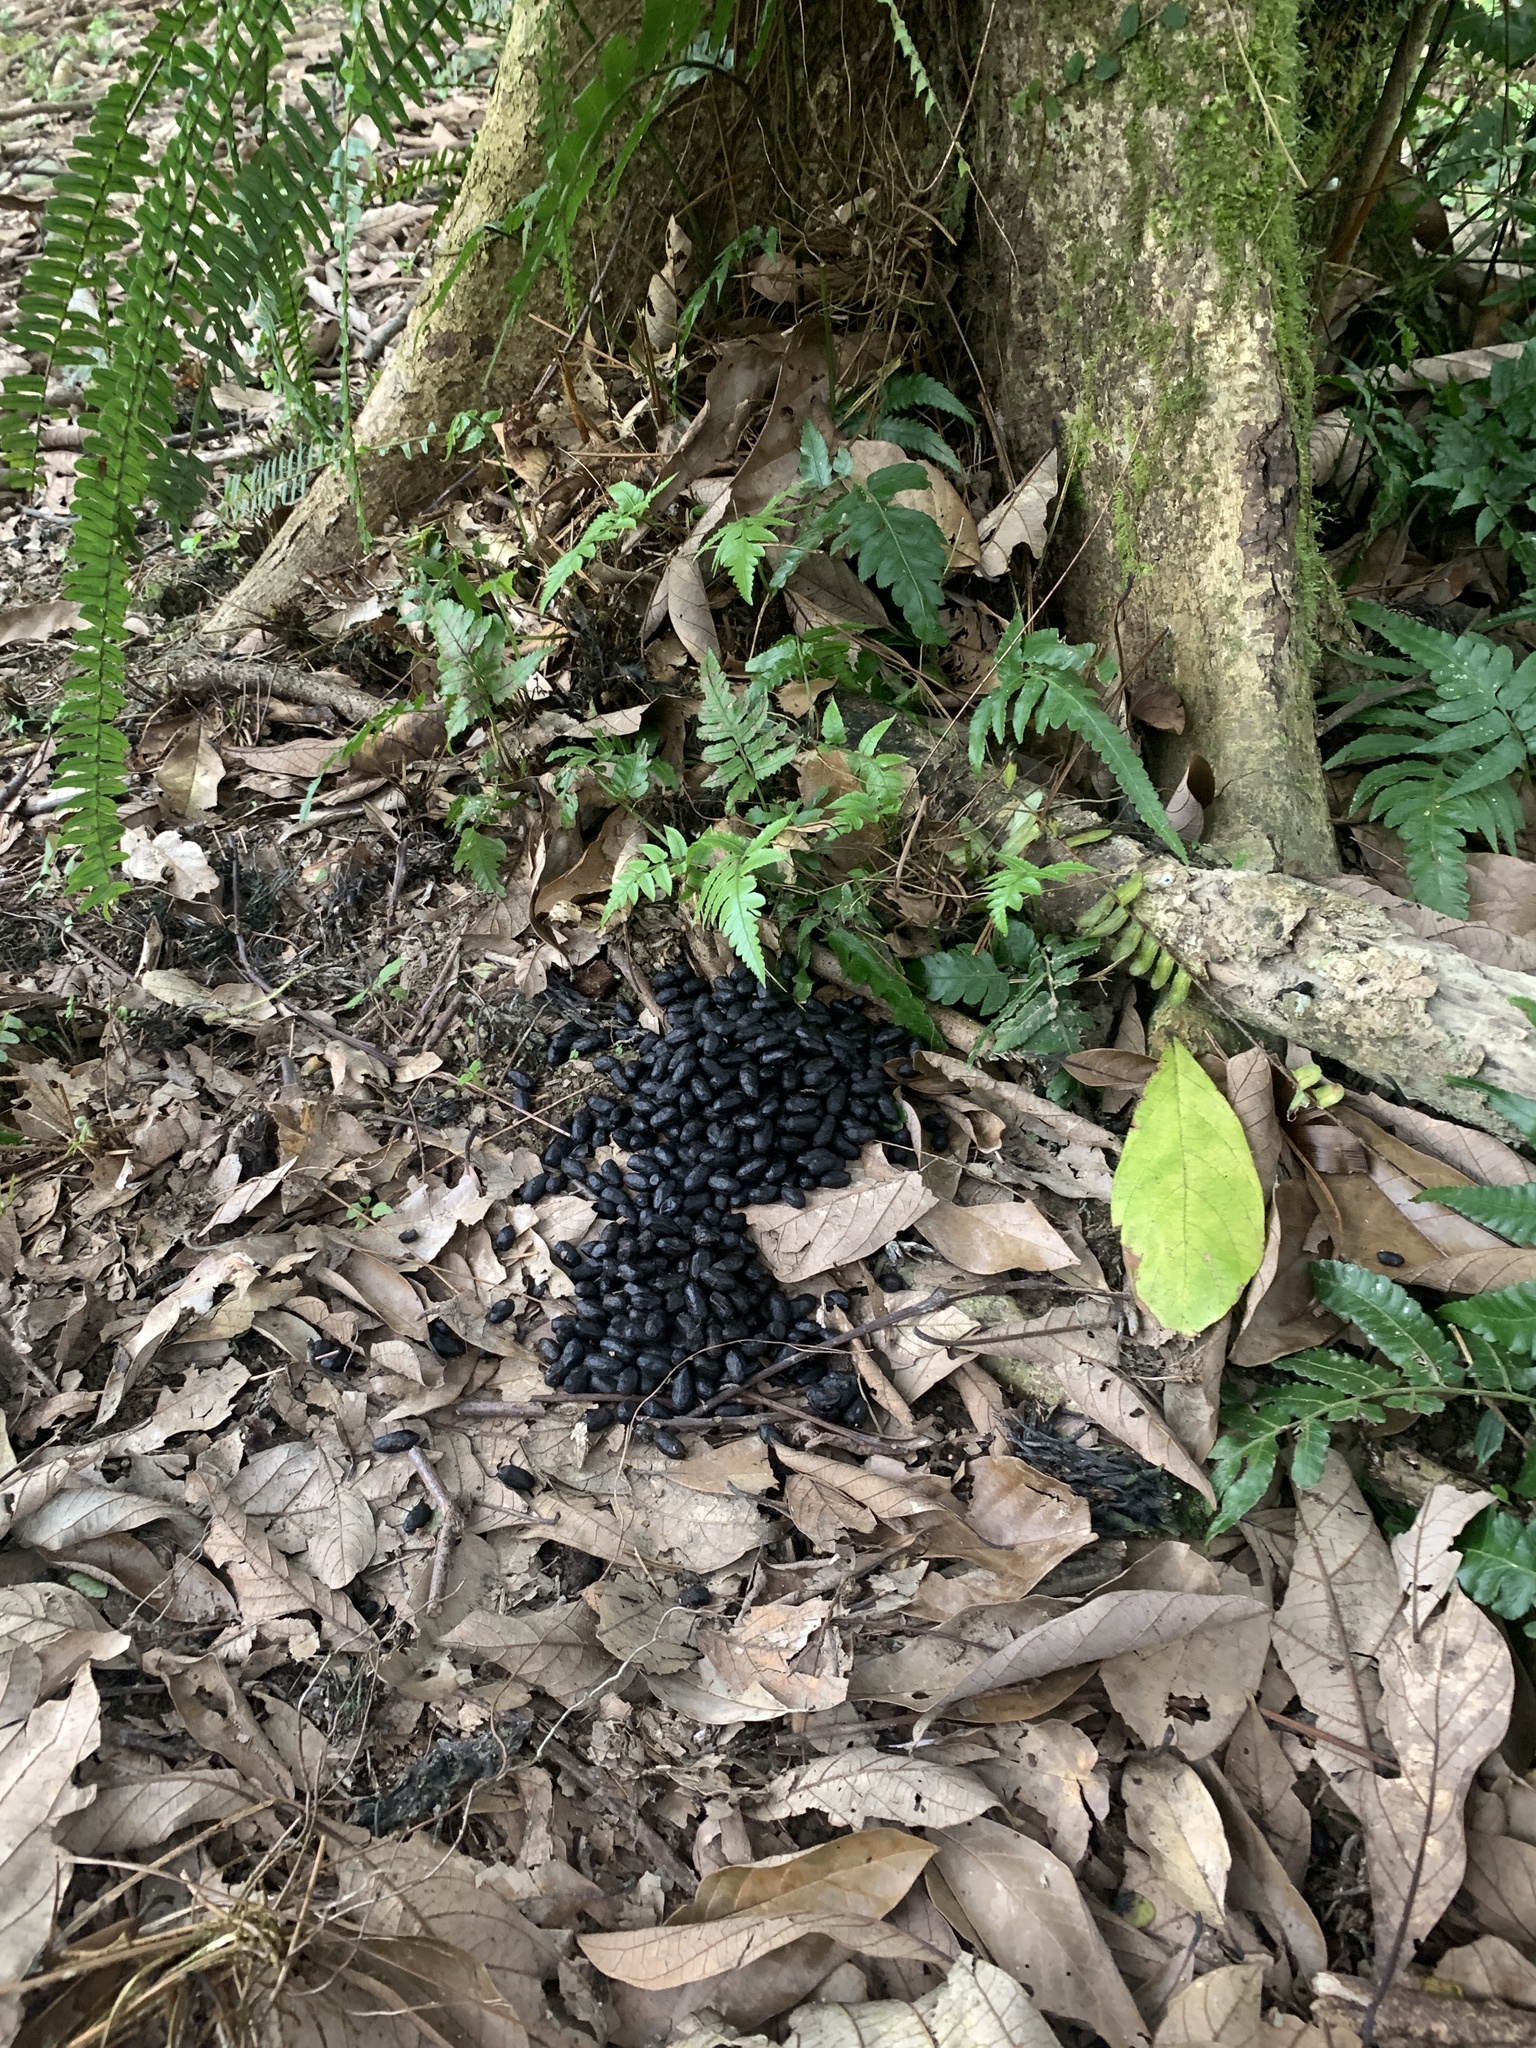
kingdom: Animalia
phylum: Chordata
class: Mammalia
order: Artiodactyla
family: Bovidae
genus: Capricornis
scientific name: Capricornis swinhoei
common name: Formosan serow
